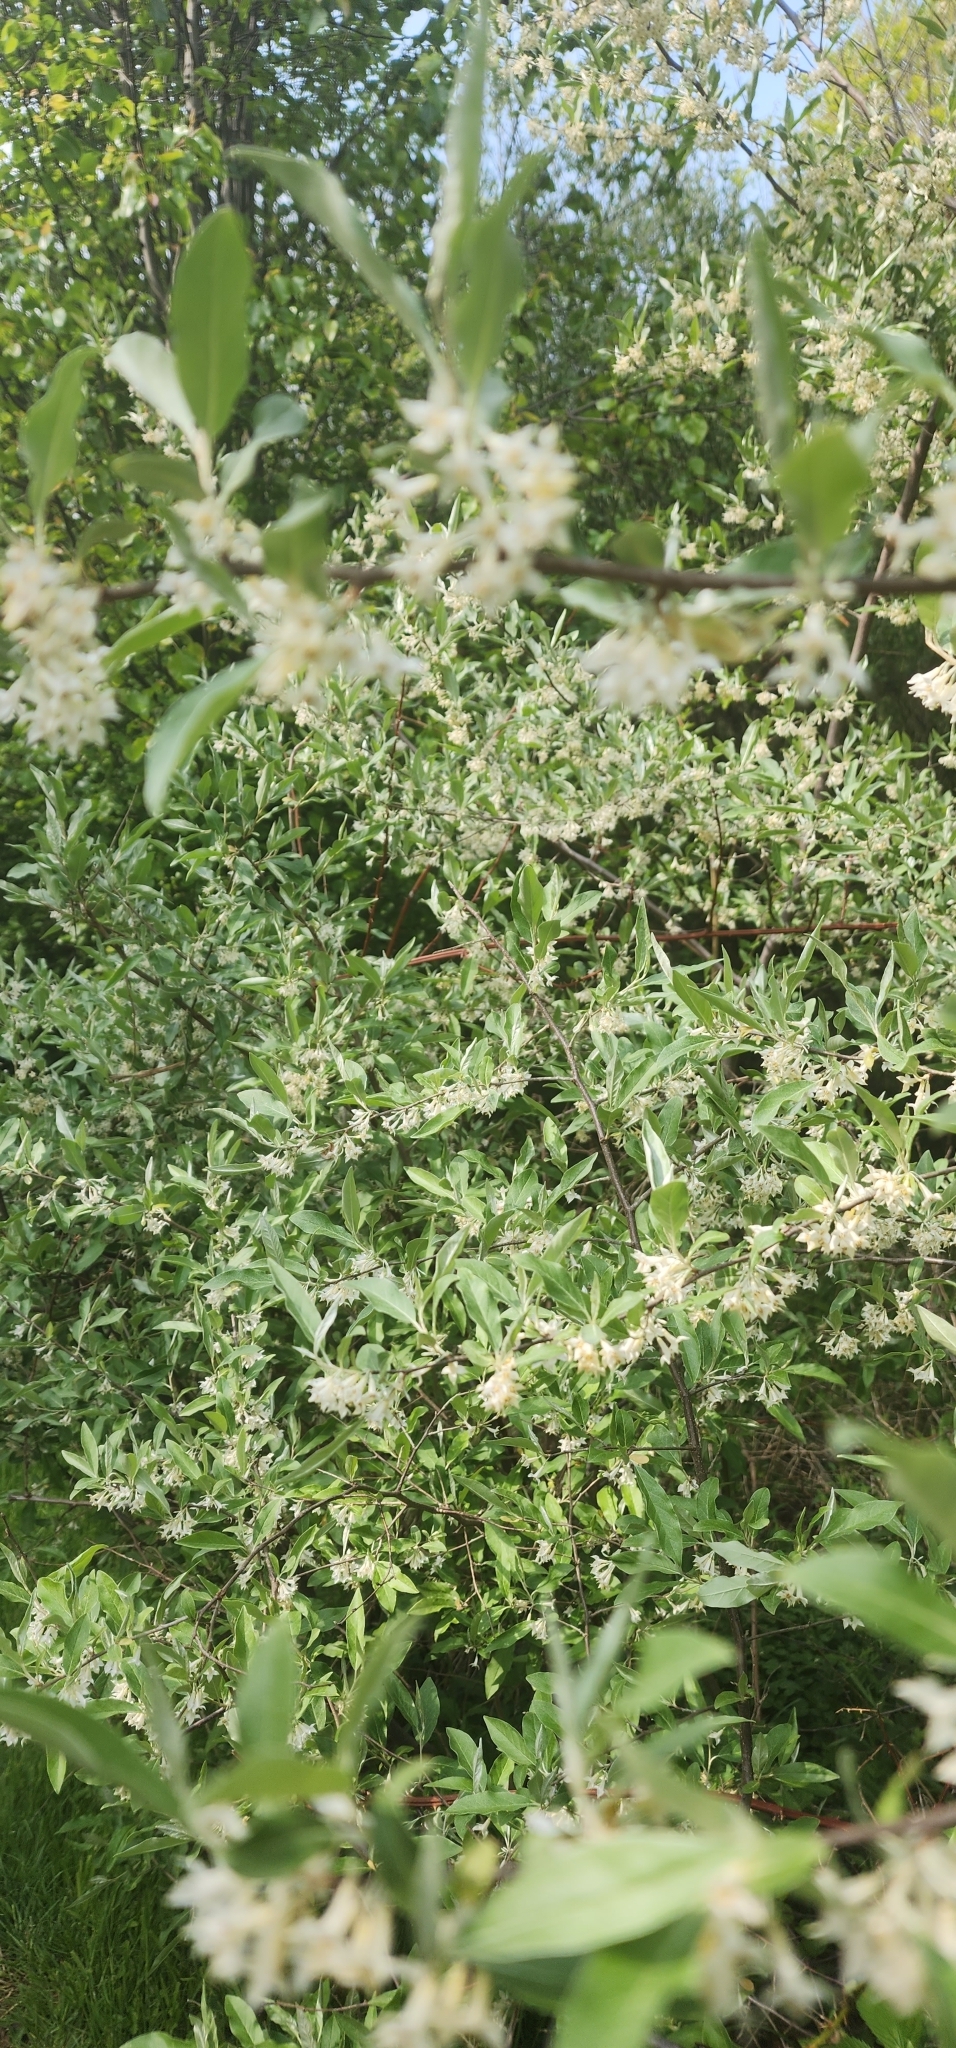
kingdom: Plantae
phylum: Tracheophyta
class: Magnoliopsida
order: Rosales
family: Elaeagnaceae
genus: Elaeagnus
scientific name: Elaeagnus umbellata
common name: Autumn olive
